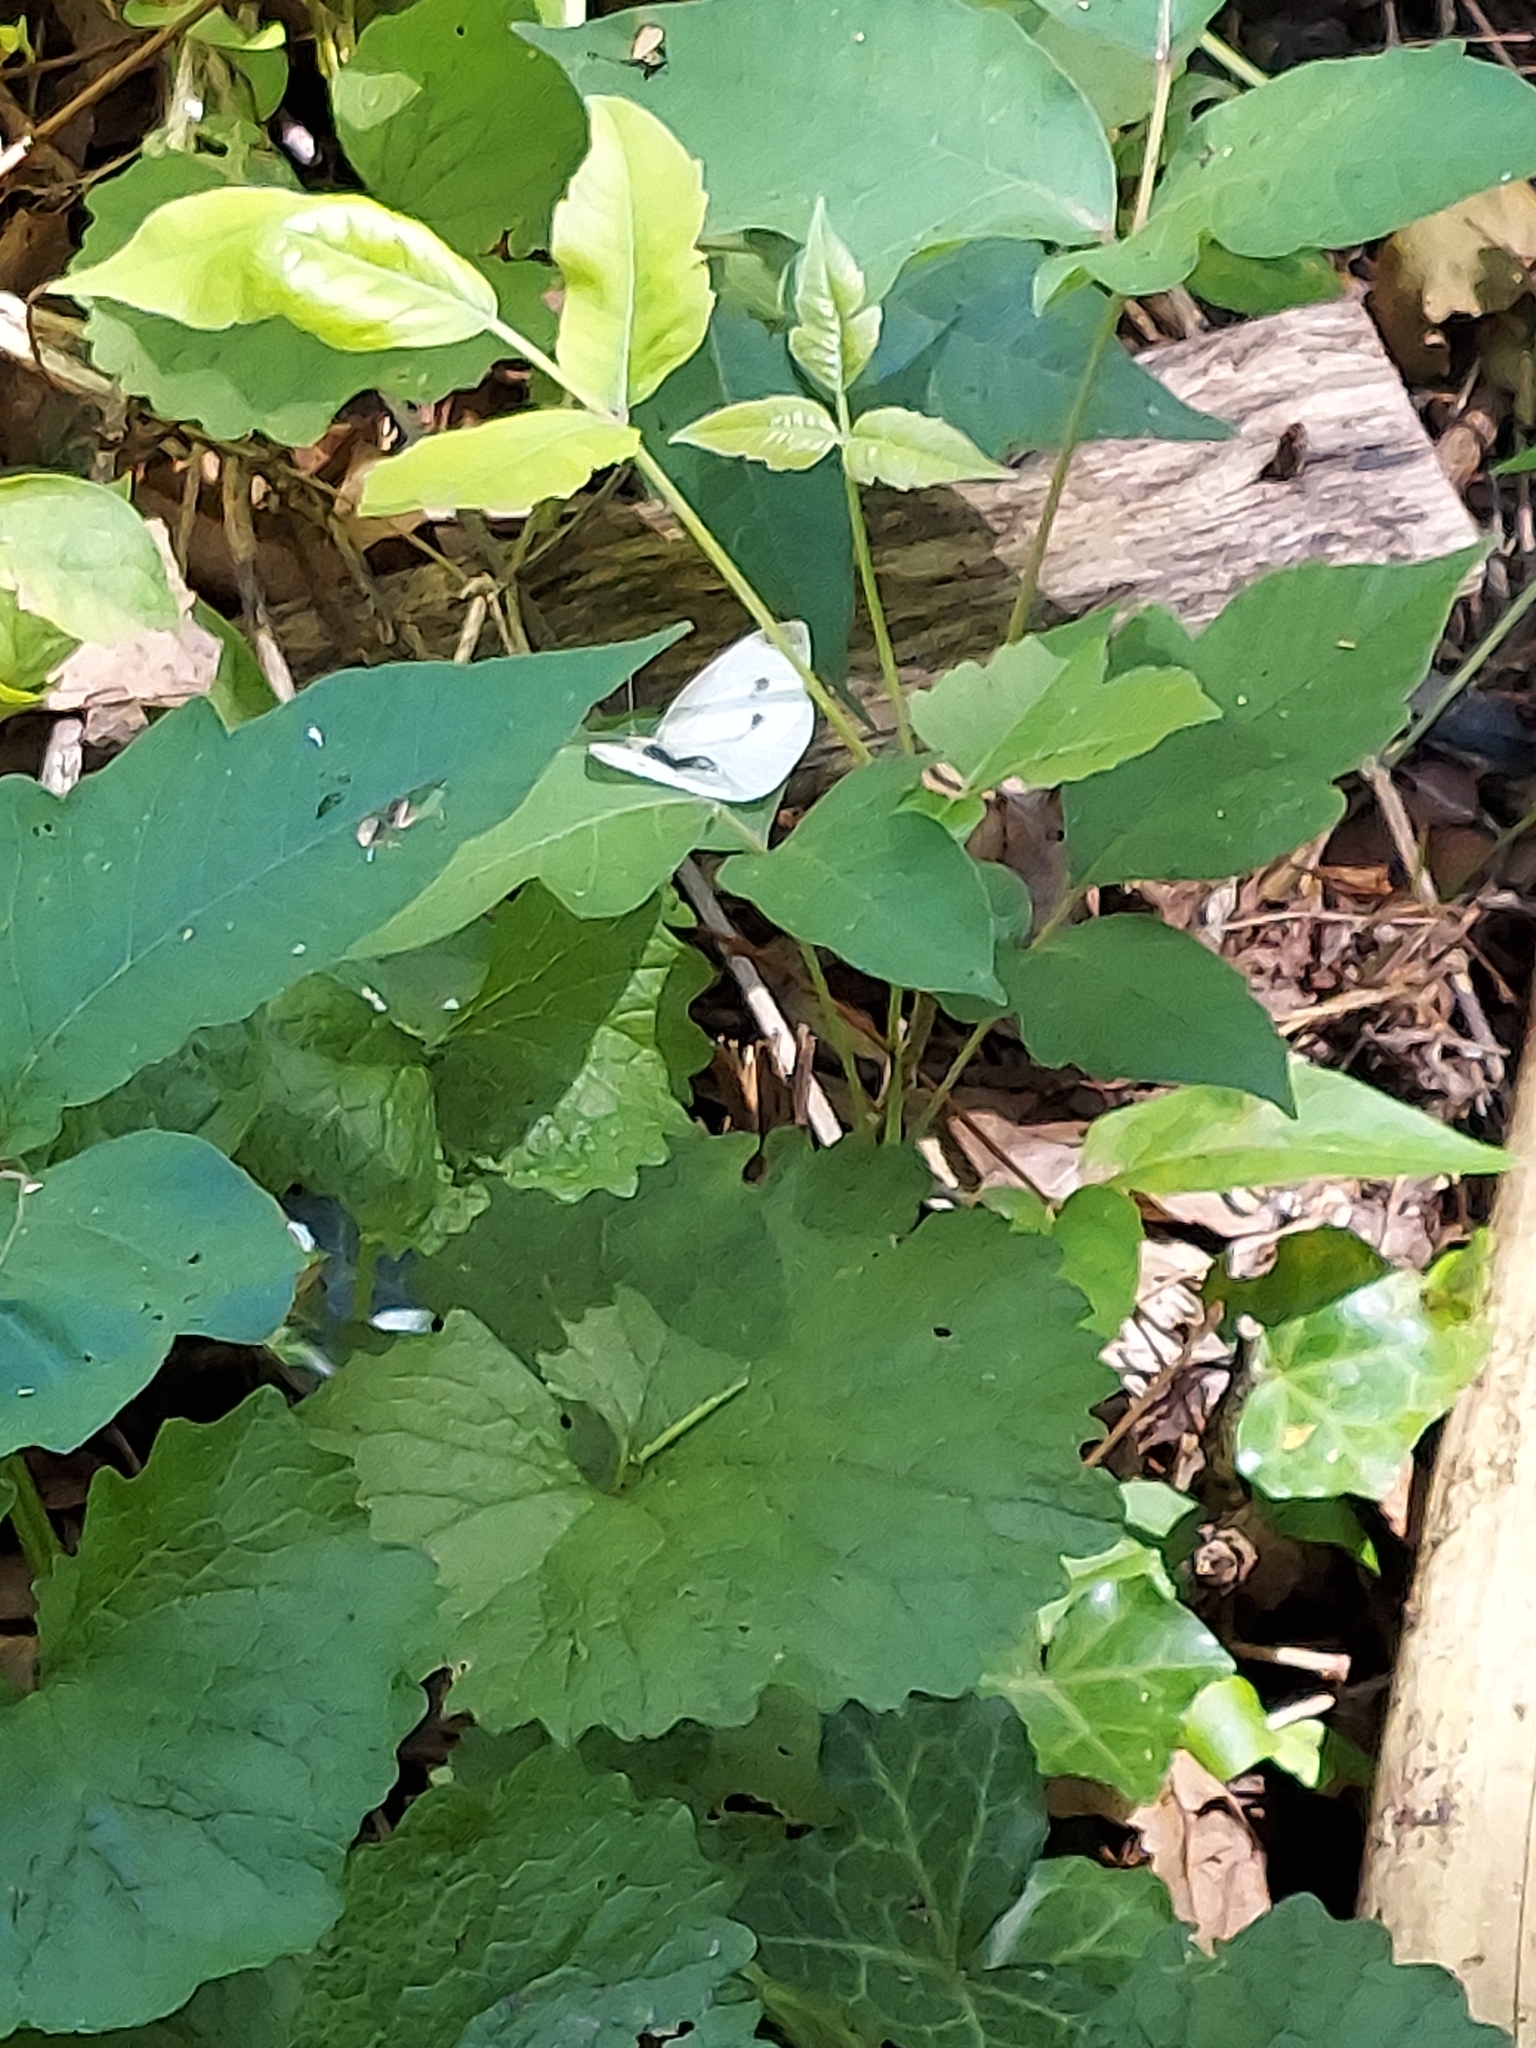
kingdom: Animalia
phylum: Arthropoda
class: Insecta
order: Lepidoptera
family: Pieridae
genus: Pieris
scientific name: Pieris rapae
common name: Small white
